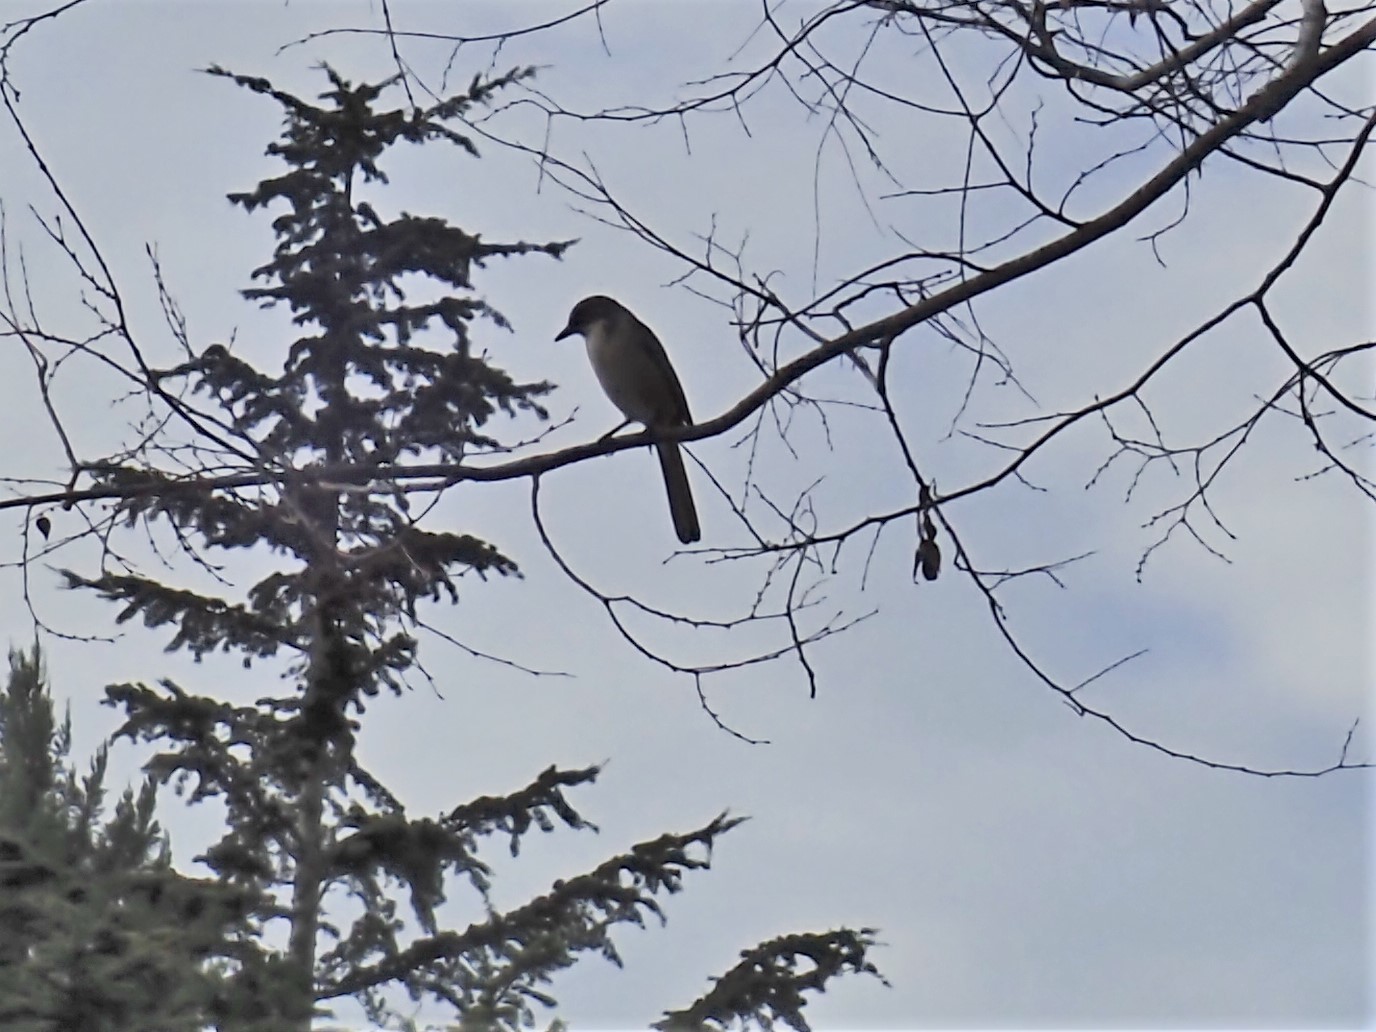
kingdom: Animalia
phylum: Chordata
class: Aves
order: Passeriformes
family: Corvidae
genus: Aphelocoma
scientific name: Aphelocoma californica
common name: California scrub-jay
